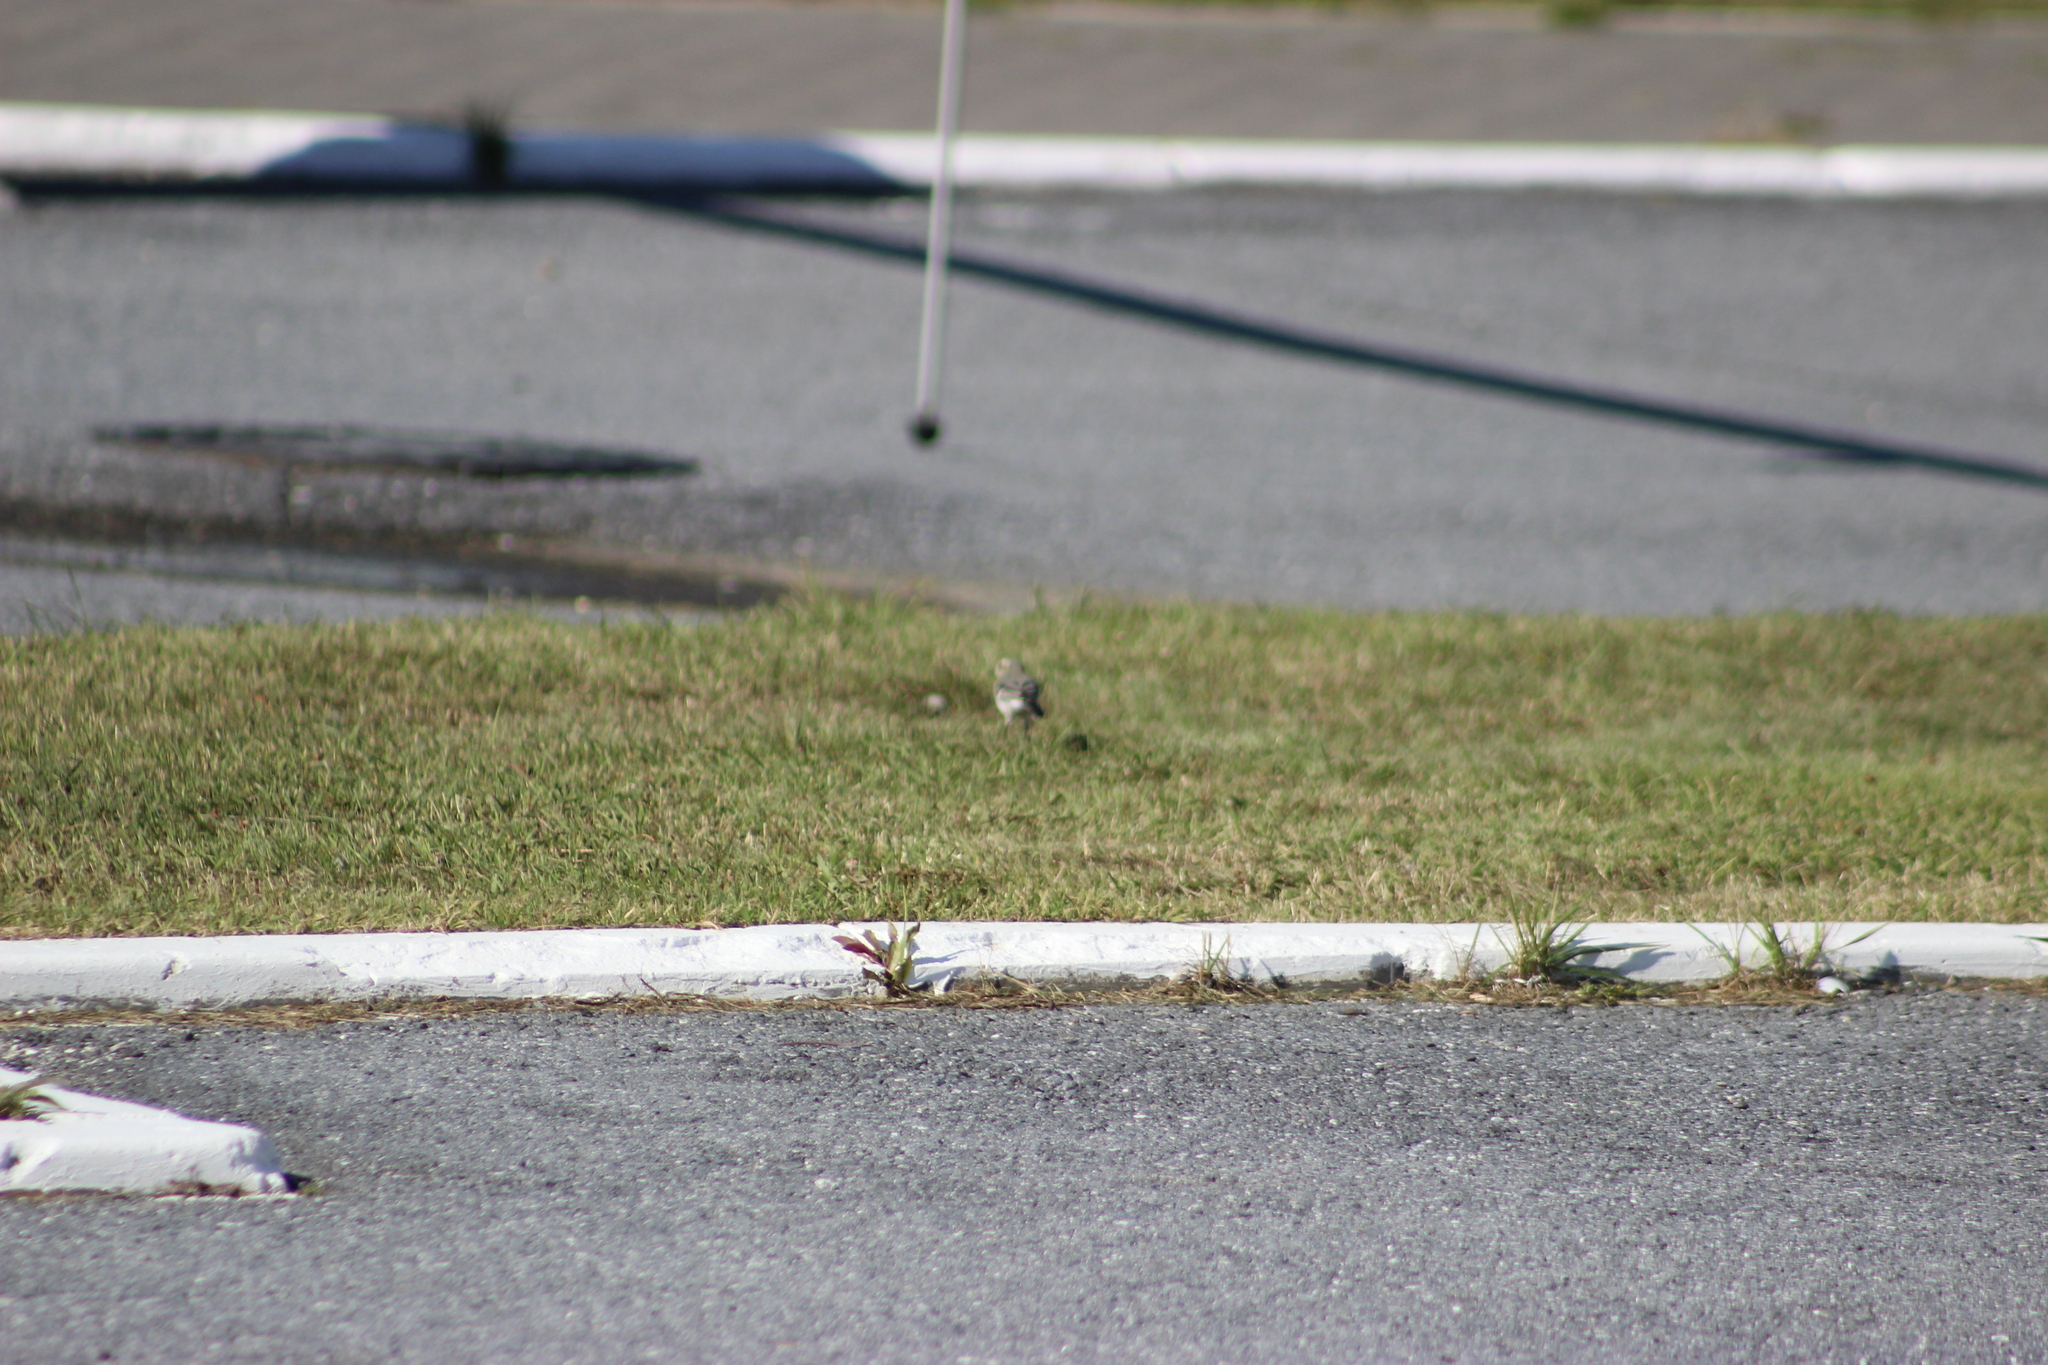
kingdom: Animalia
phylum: Chordata
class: Aves
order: Passeriformes
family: Motacillidae
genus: Motacilla
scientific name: Motacilla alba
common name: White wagtail
